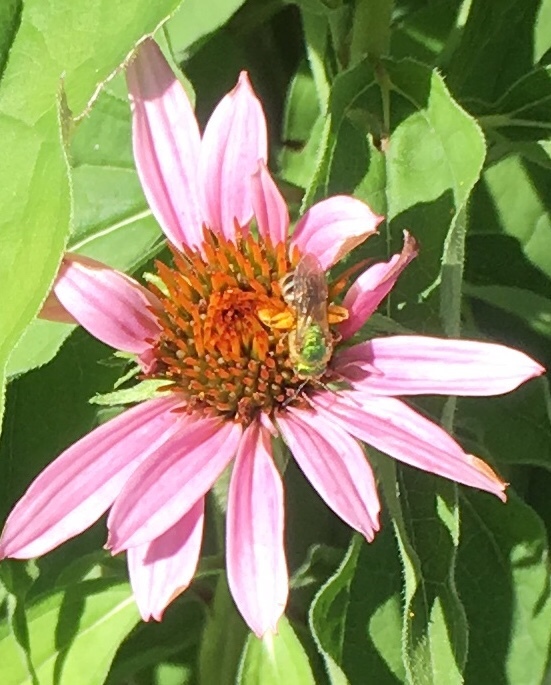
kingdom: Animalia
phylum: Arthropoda
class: Insecta
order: Hymenoptera
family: Halictidae
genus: Agapostemon
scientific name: Agapostemon virescens
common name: Bicolored striped sweat bee
